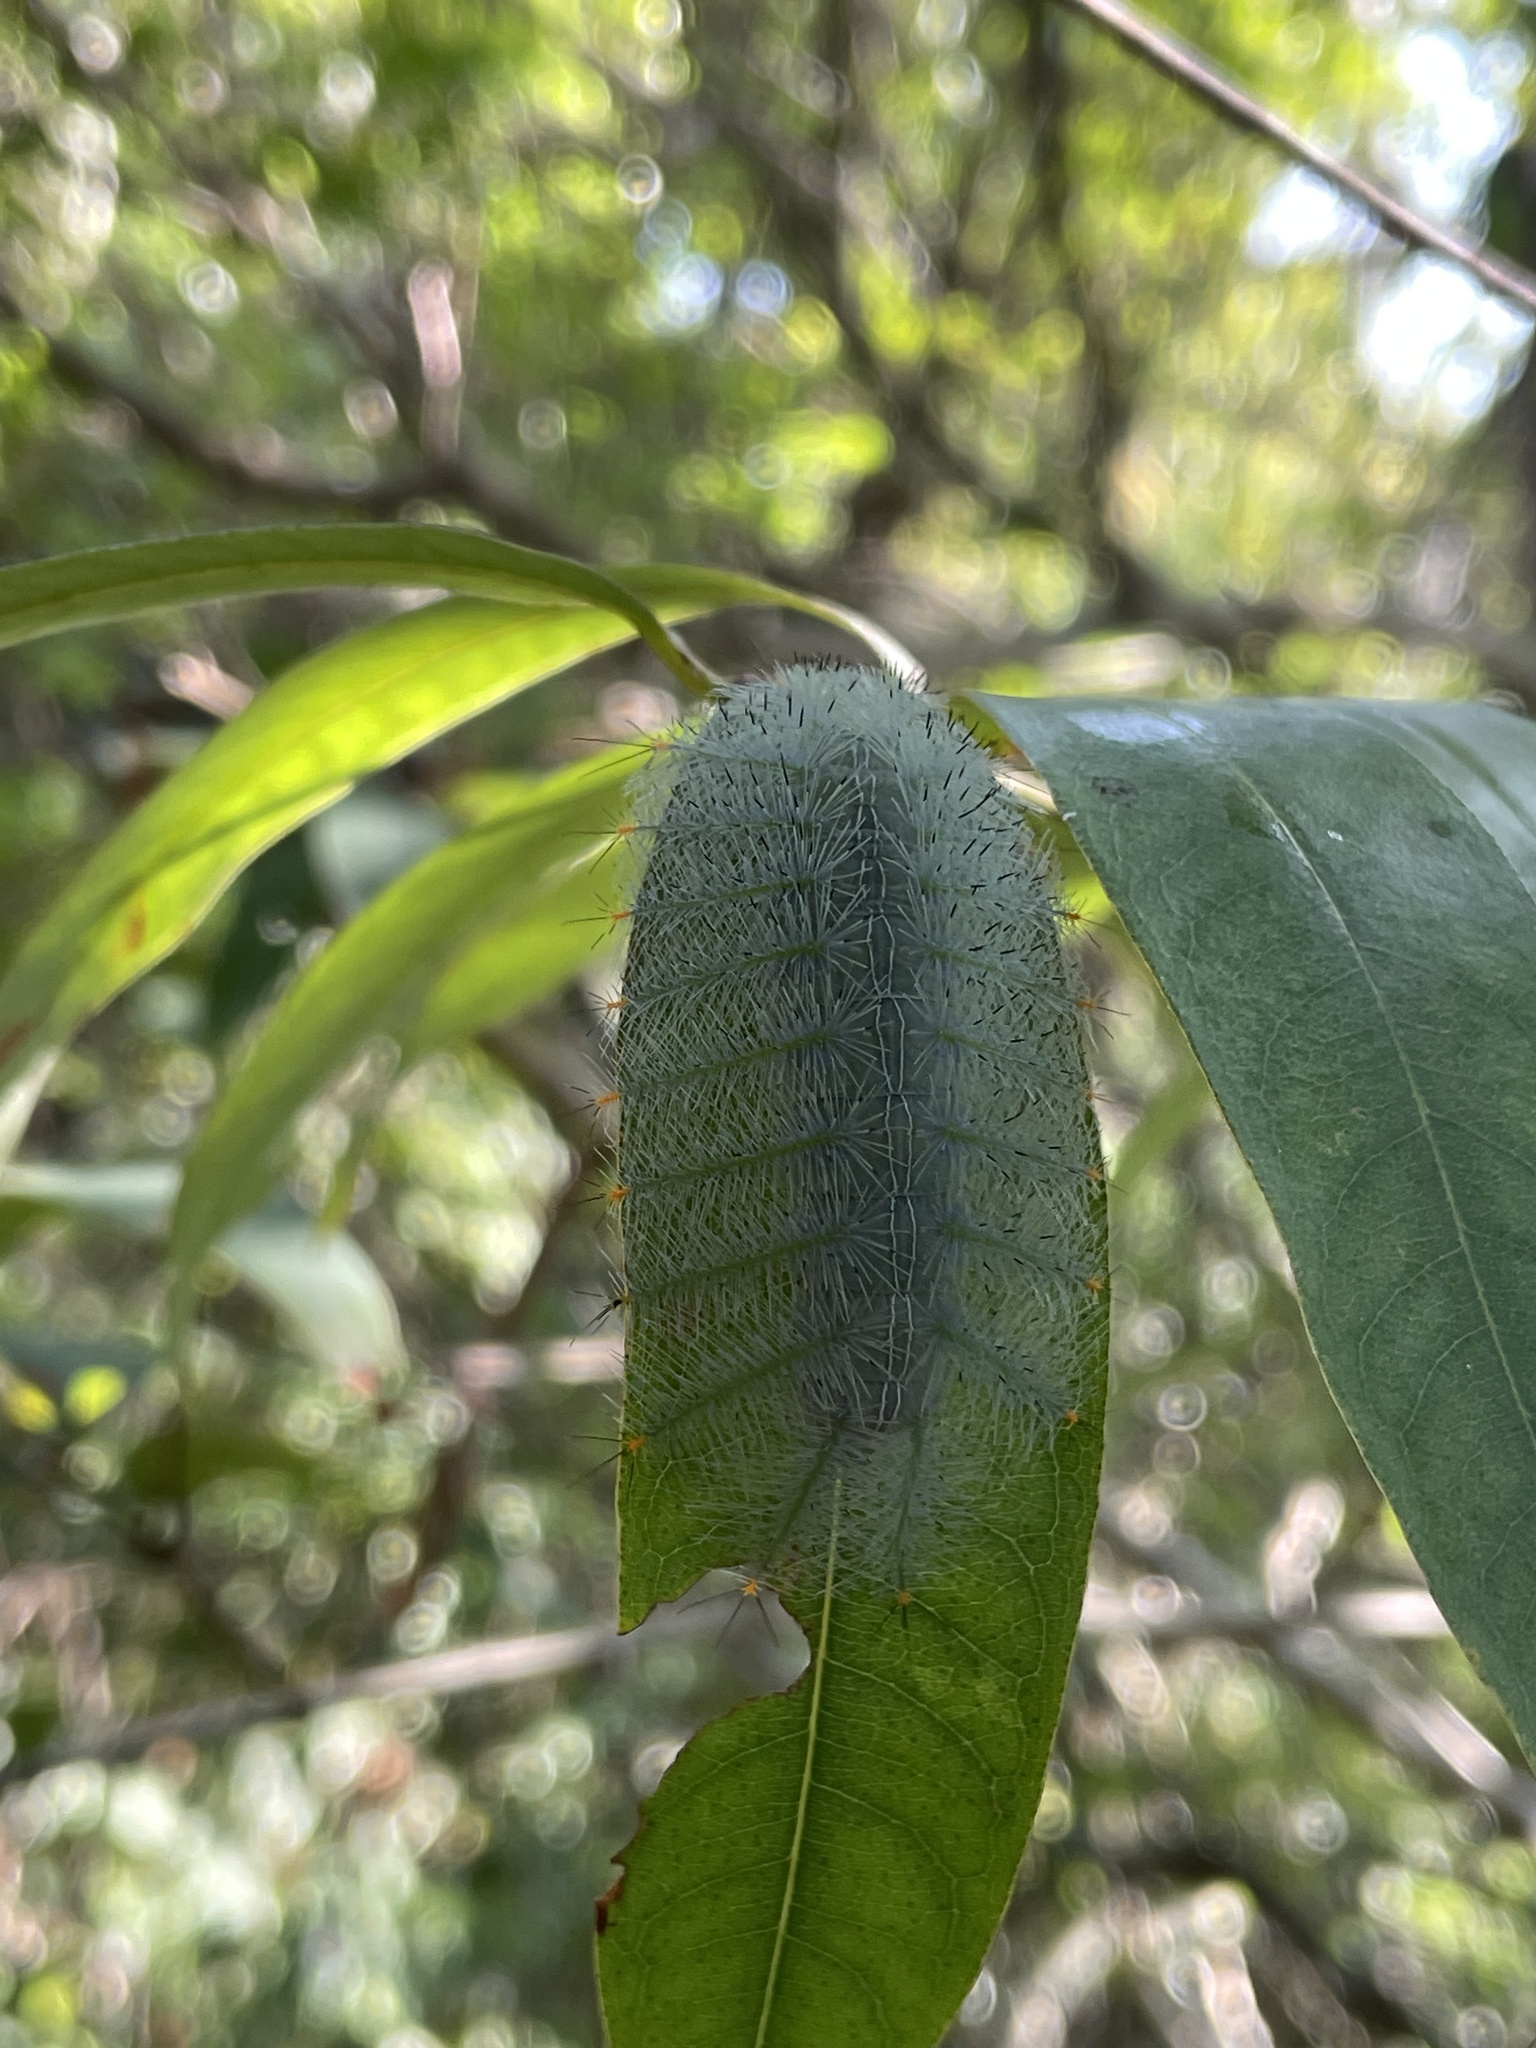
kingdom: Animalia
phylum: Arthropoda
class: Insecta
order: Lepidoptera
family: Nymphalidae
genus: Lexias
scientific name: Lexias pardalis
